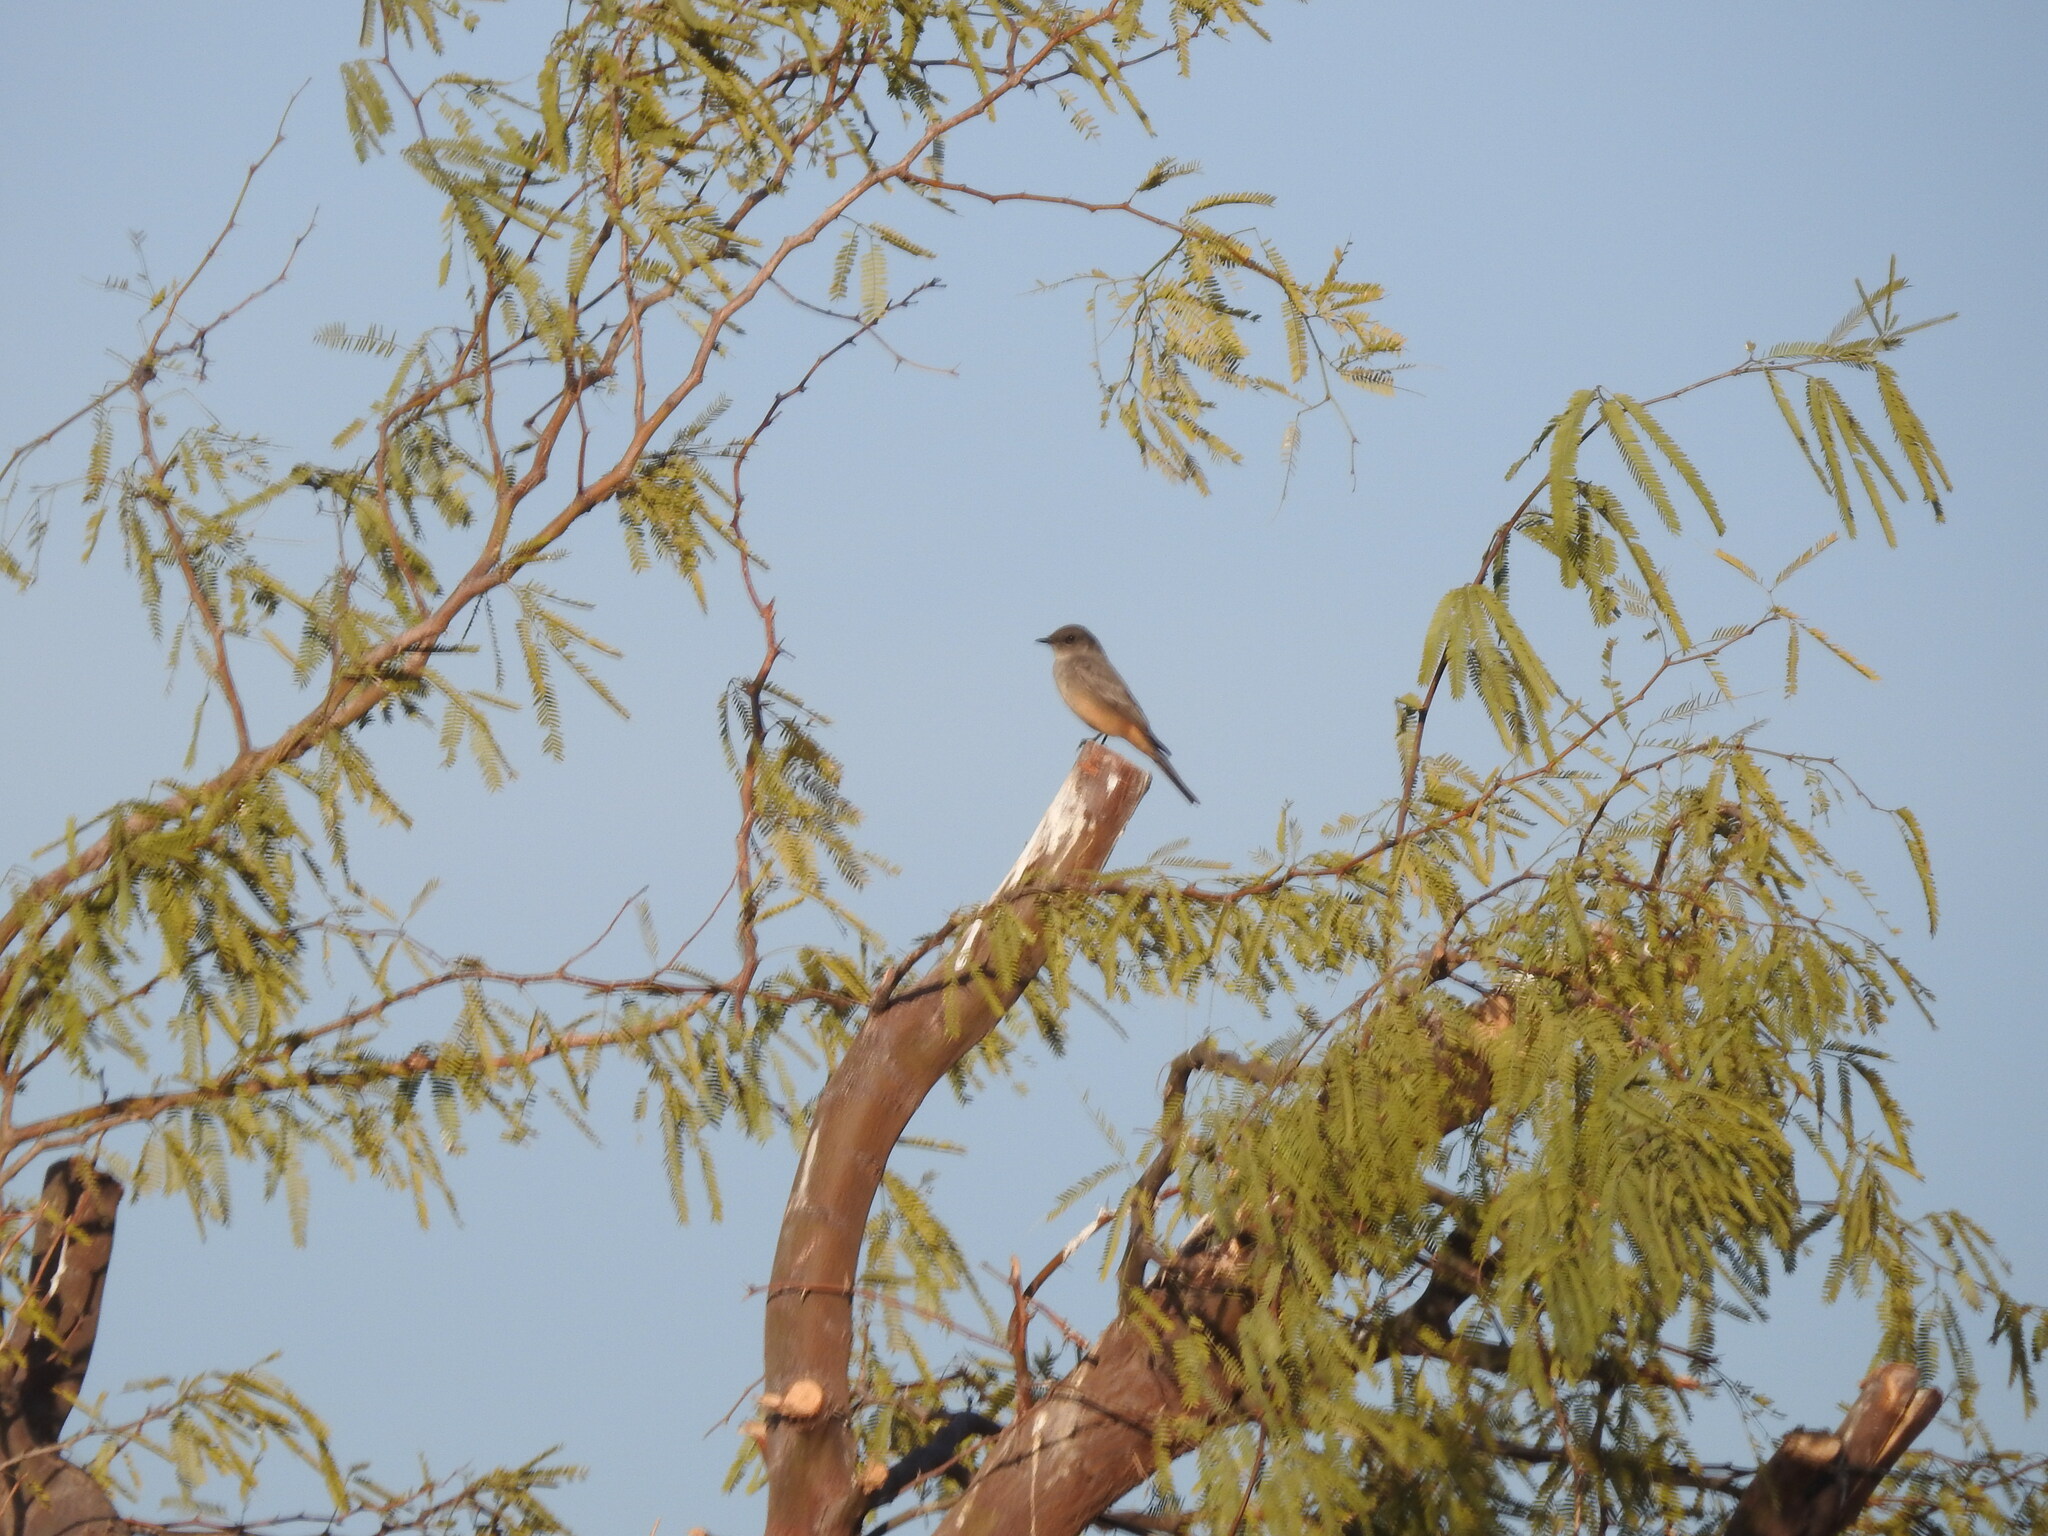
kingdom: Animalia
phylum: Chordata
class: Aves
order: Passeriformes
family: Tyrannidae
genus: Sayornis
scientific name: Sayornis saya
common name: Say's phoebe
